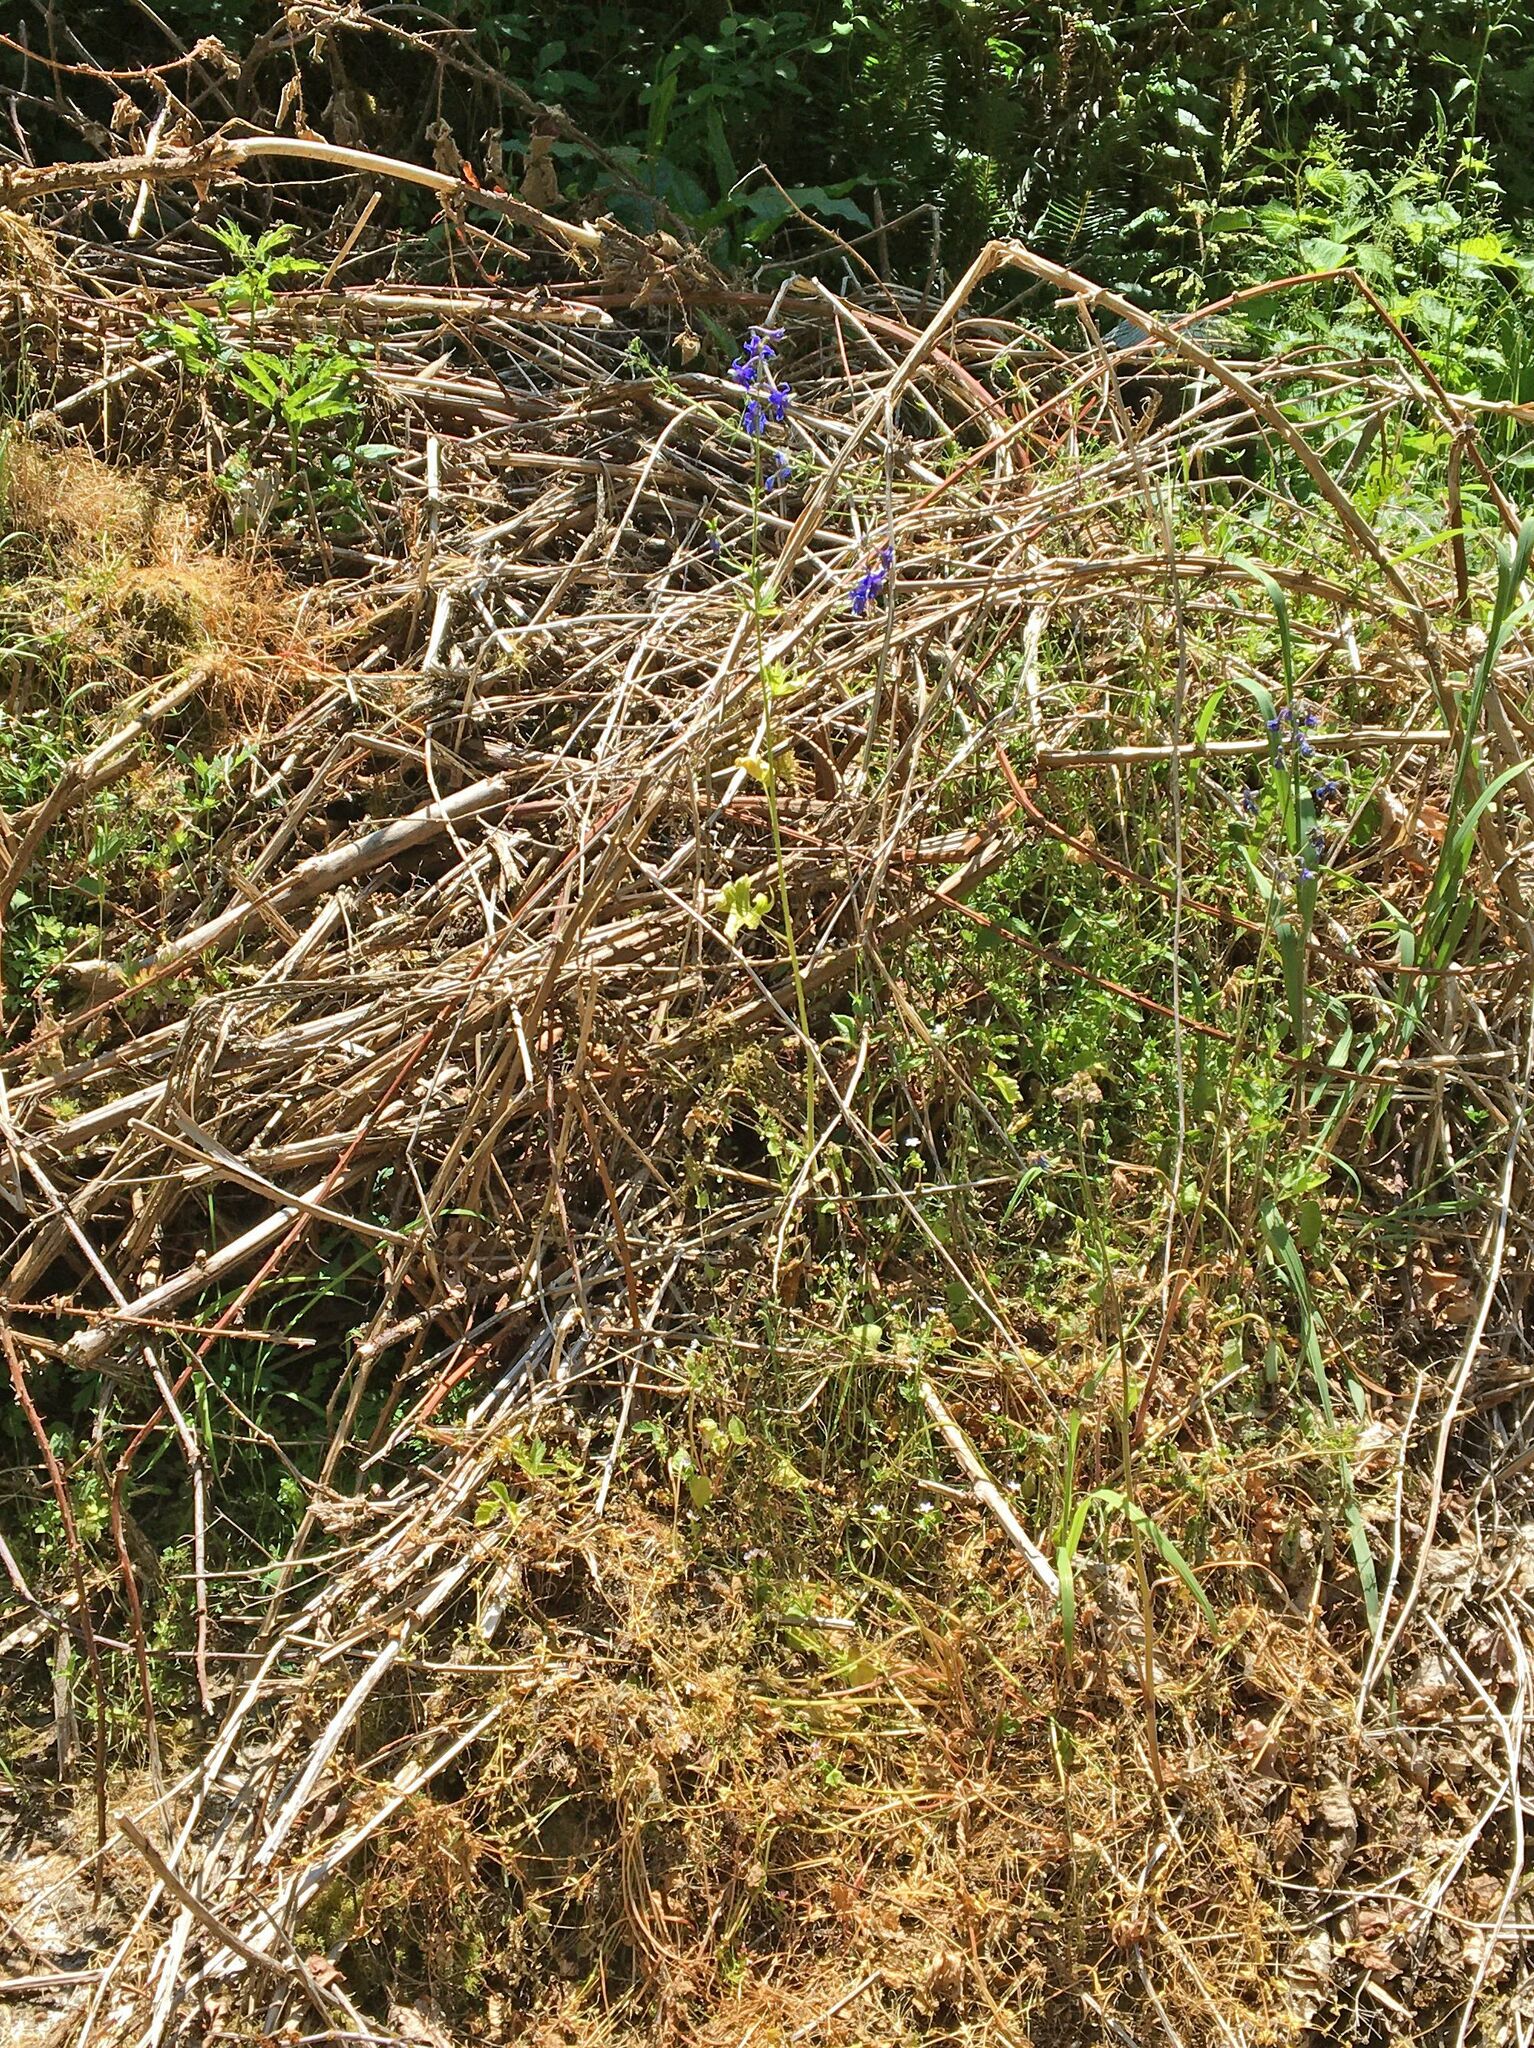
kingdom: Plantae
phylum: Tracheophyta
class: Magnoliopsida
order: Ranunculales
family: Ranunculaceae
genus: Delphinium
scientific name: Delphinium trolliifolium
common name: Cow-poison
